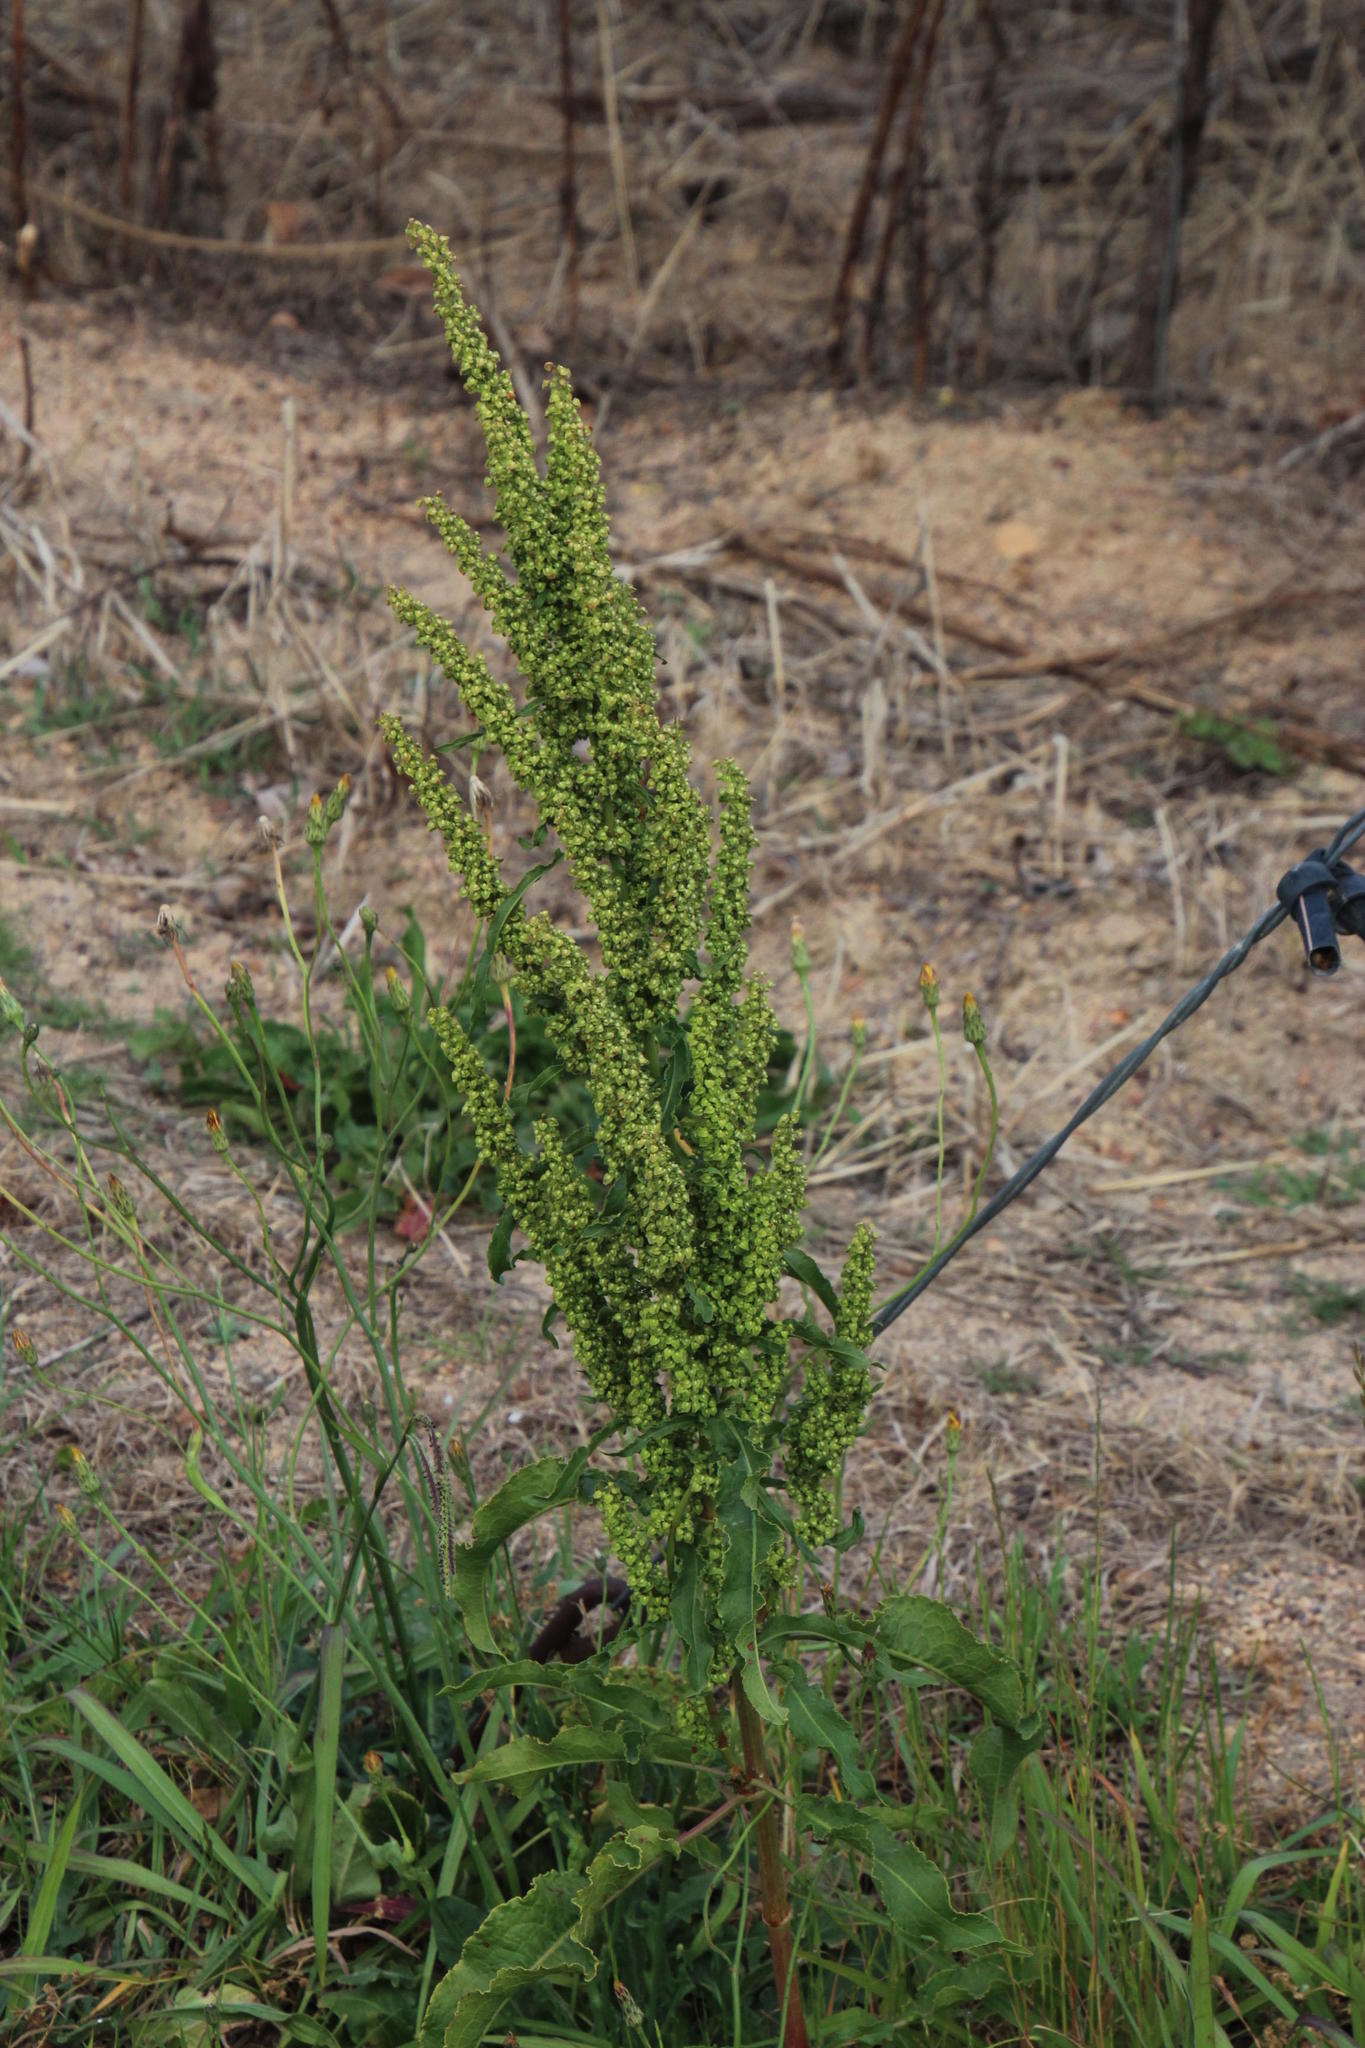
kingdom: Plantae
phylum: Tracheophyta
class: Magnoliopsida
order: Caryophyllales
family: Polygonaceae
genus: Rumex
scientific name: Rumex crispus
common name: Curled dock
